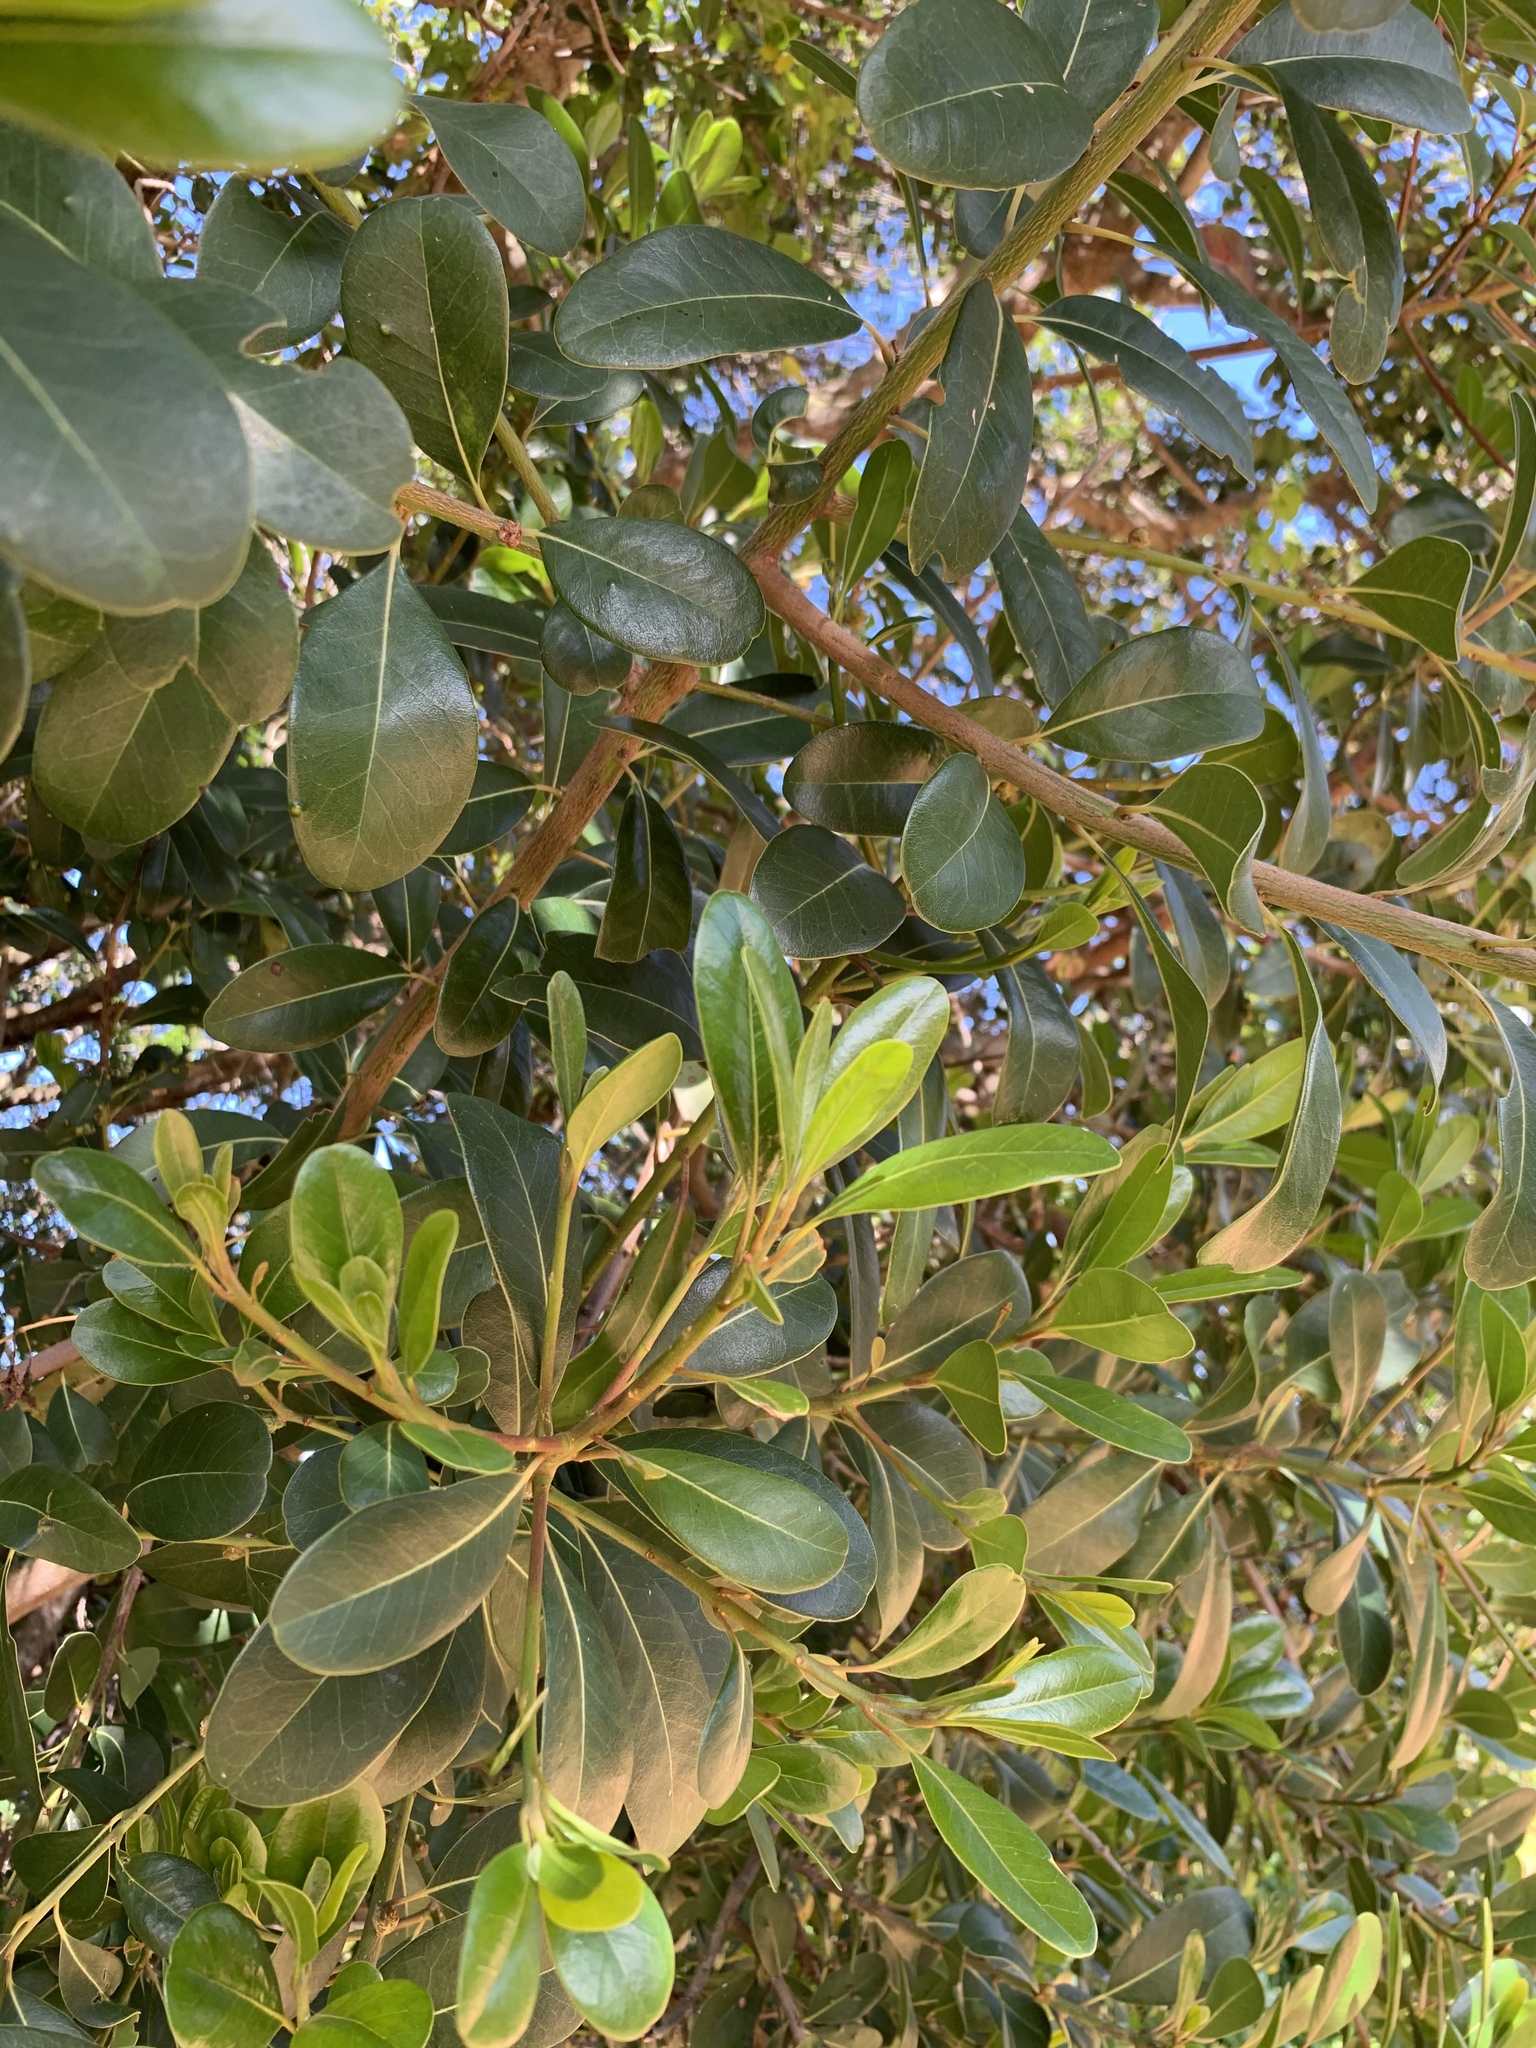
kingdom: Plantae
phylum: Tracheophyta
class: Magnoliopsida
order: Ericales
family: Sapotaceae
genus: Sideroxylon
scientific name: Sideroxylon inerme
